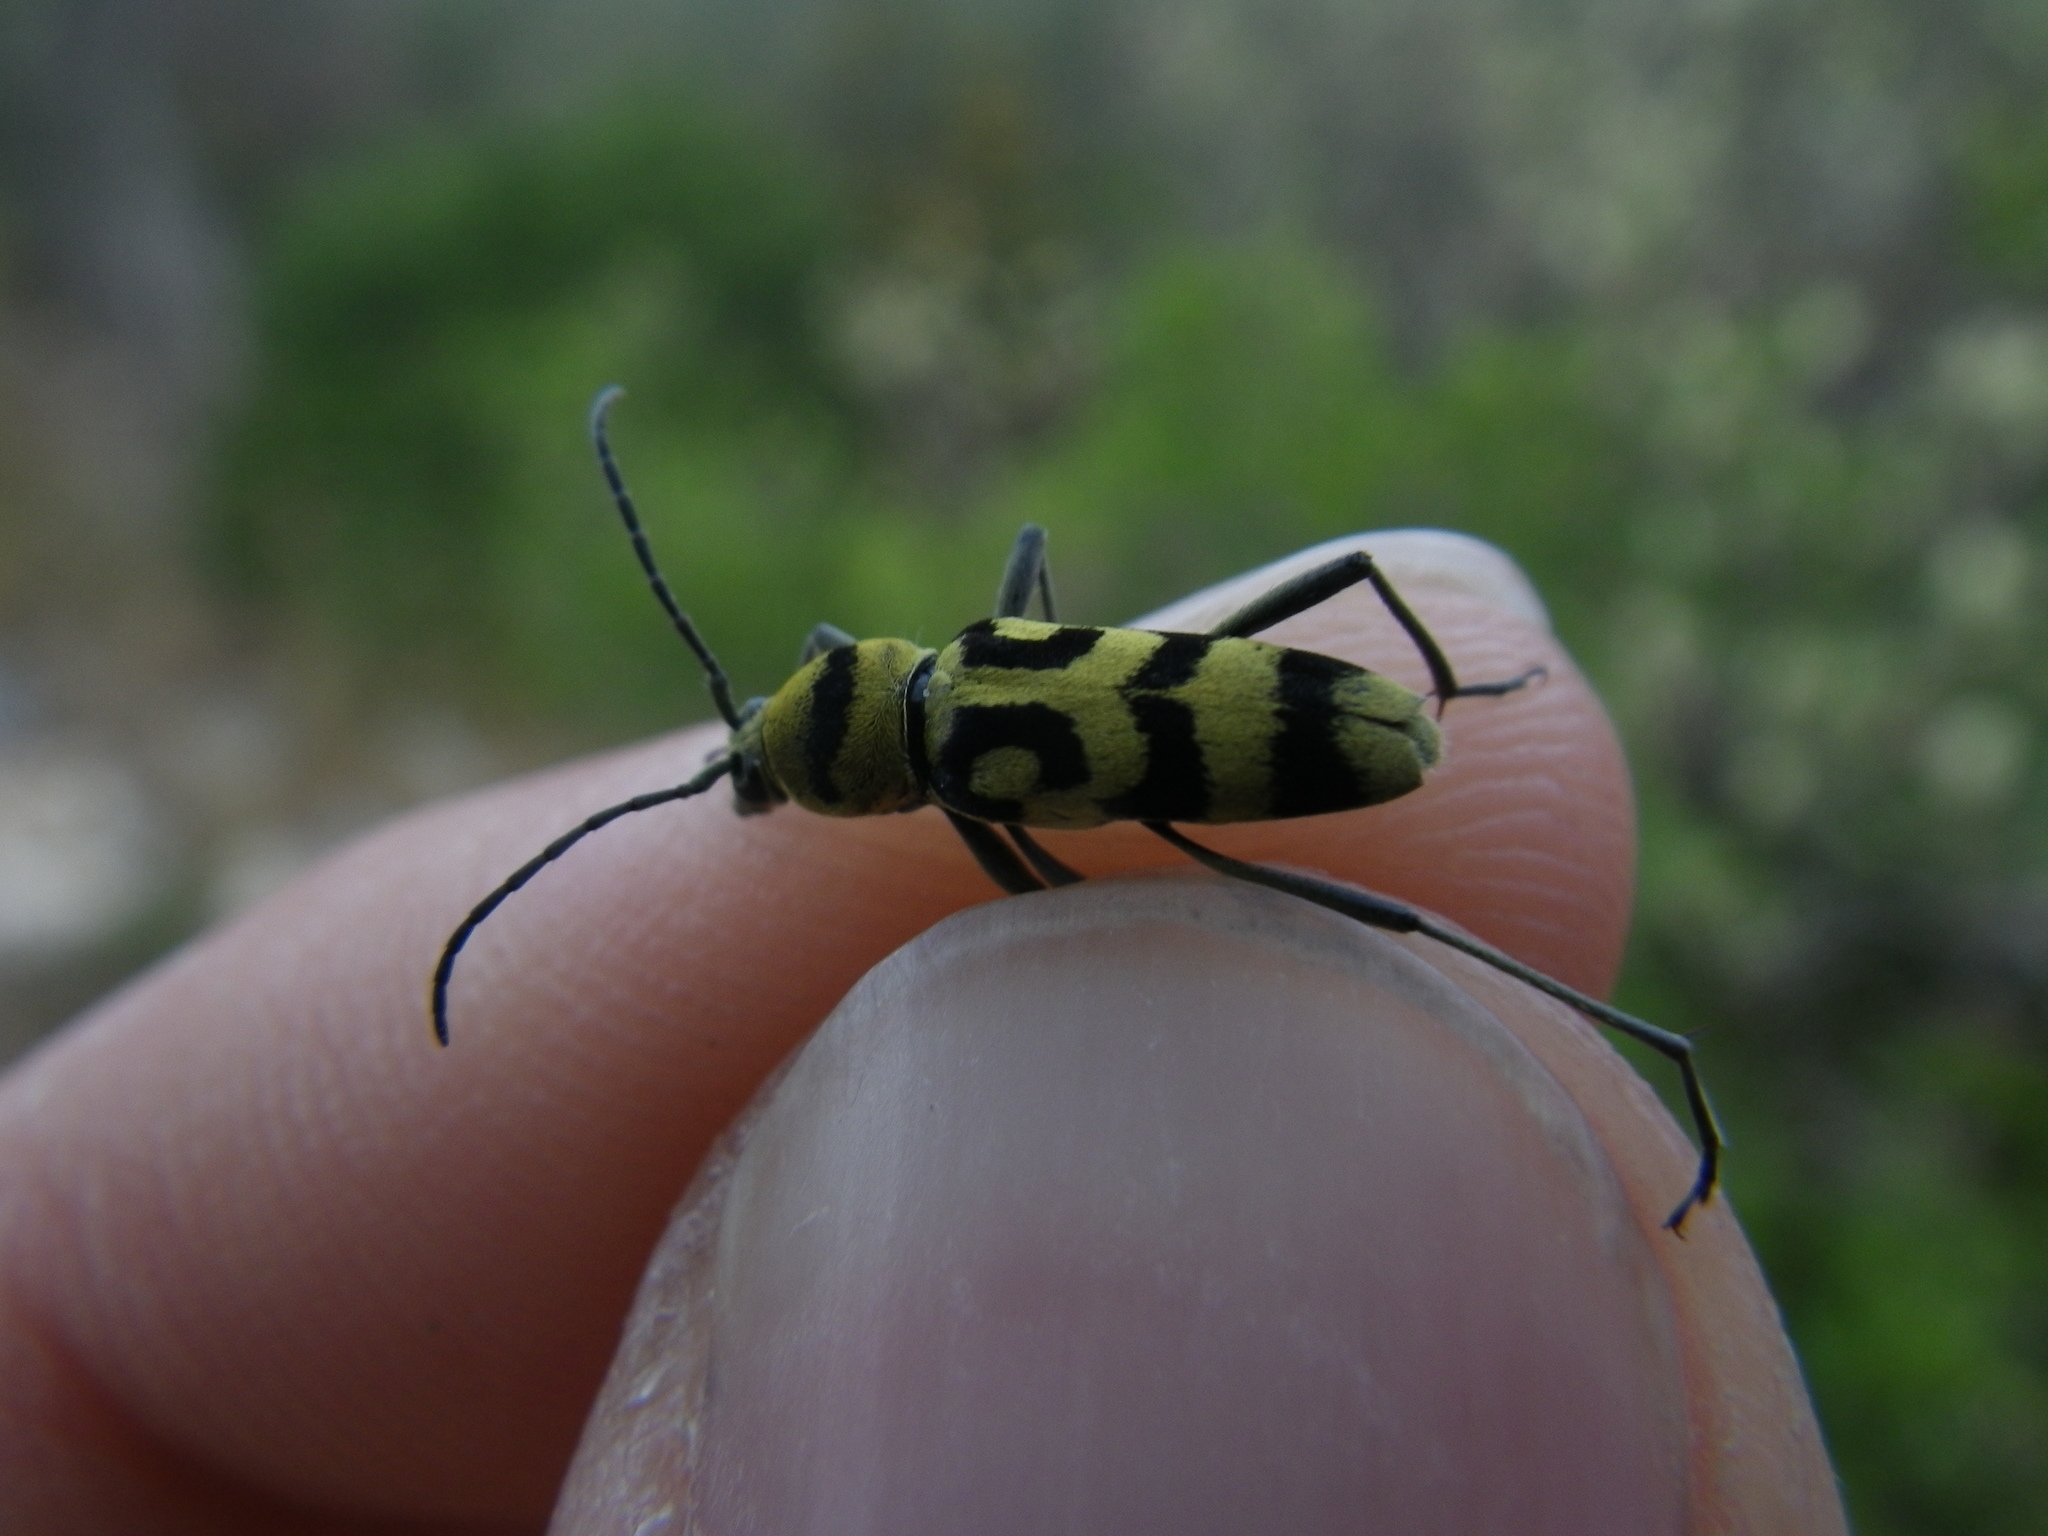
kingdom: Animalia
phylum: Arthropoda
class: Insecta
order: Coleoptera
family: Cerambycidae
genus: Chlorophorus
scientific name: Chlorophorus varius
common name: Grape wood borer
